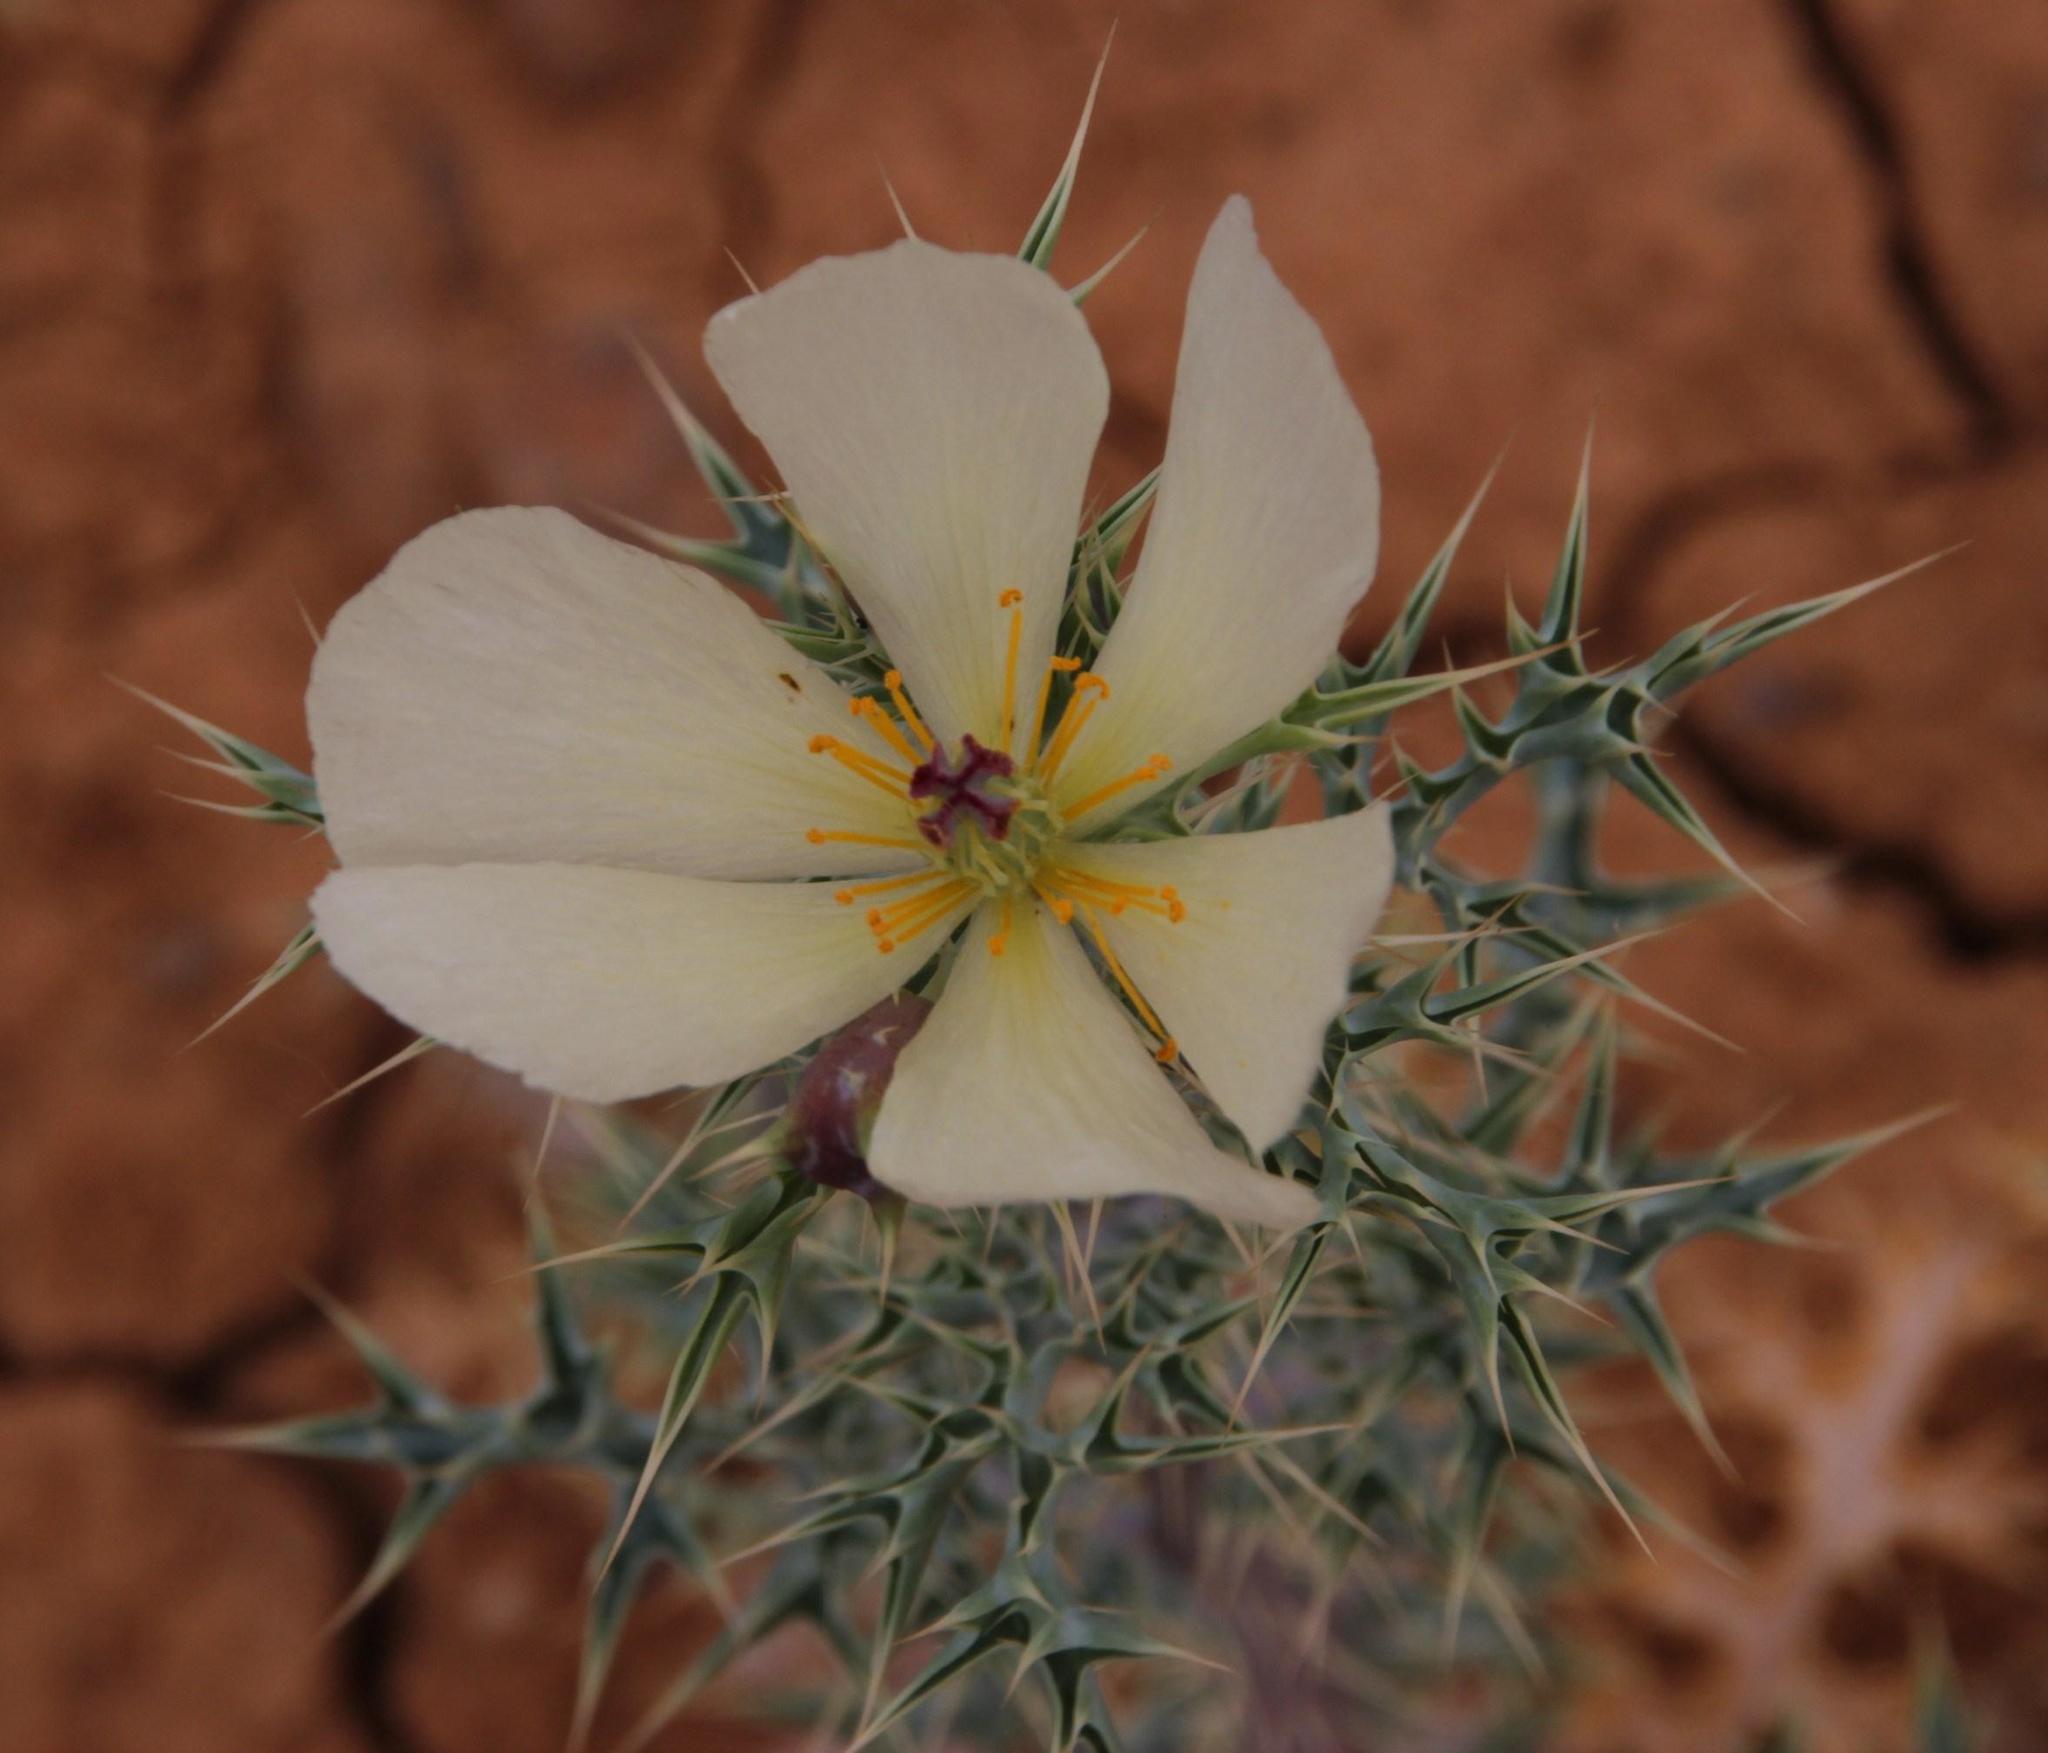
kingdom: Plantae
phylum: Tracheophyta
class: Magnoliopsida
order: Ranunculales
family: Papaveraceae
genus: Argemone
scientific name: Argemone ochroleuca
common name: White-flower mexican-poppy
